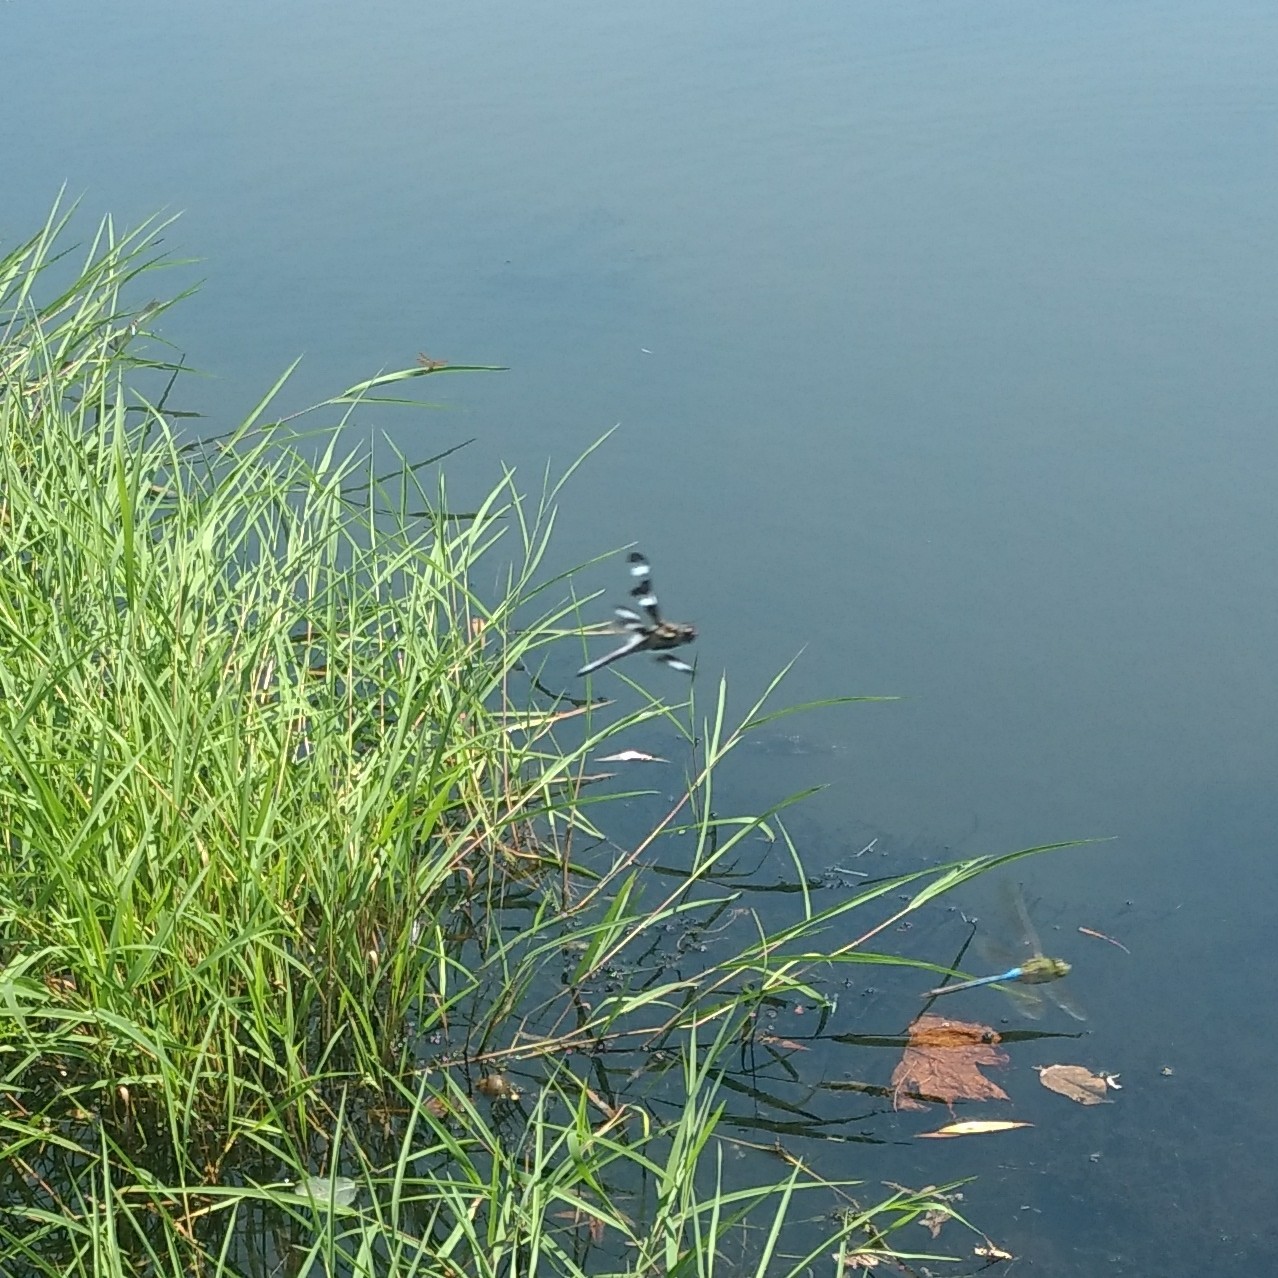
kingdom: Animalia
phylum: Arthropoda
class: Insecta
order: Odonata
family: Libellulidae
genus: Libellula
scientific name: Libellula pulchella
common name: Twelve-spotted skimmer
